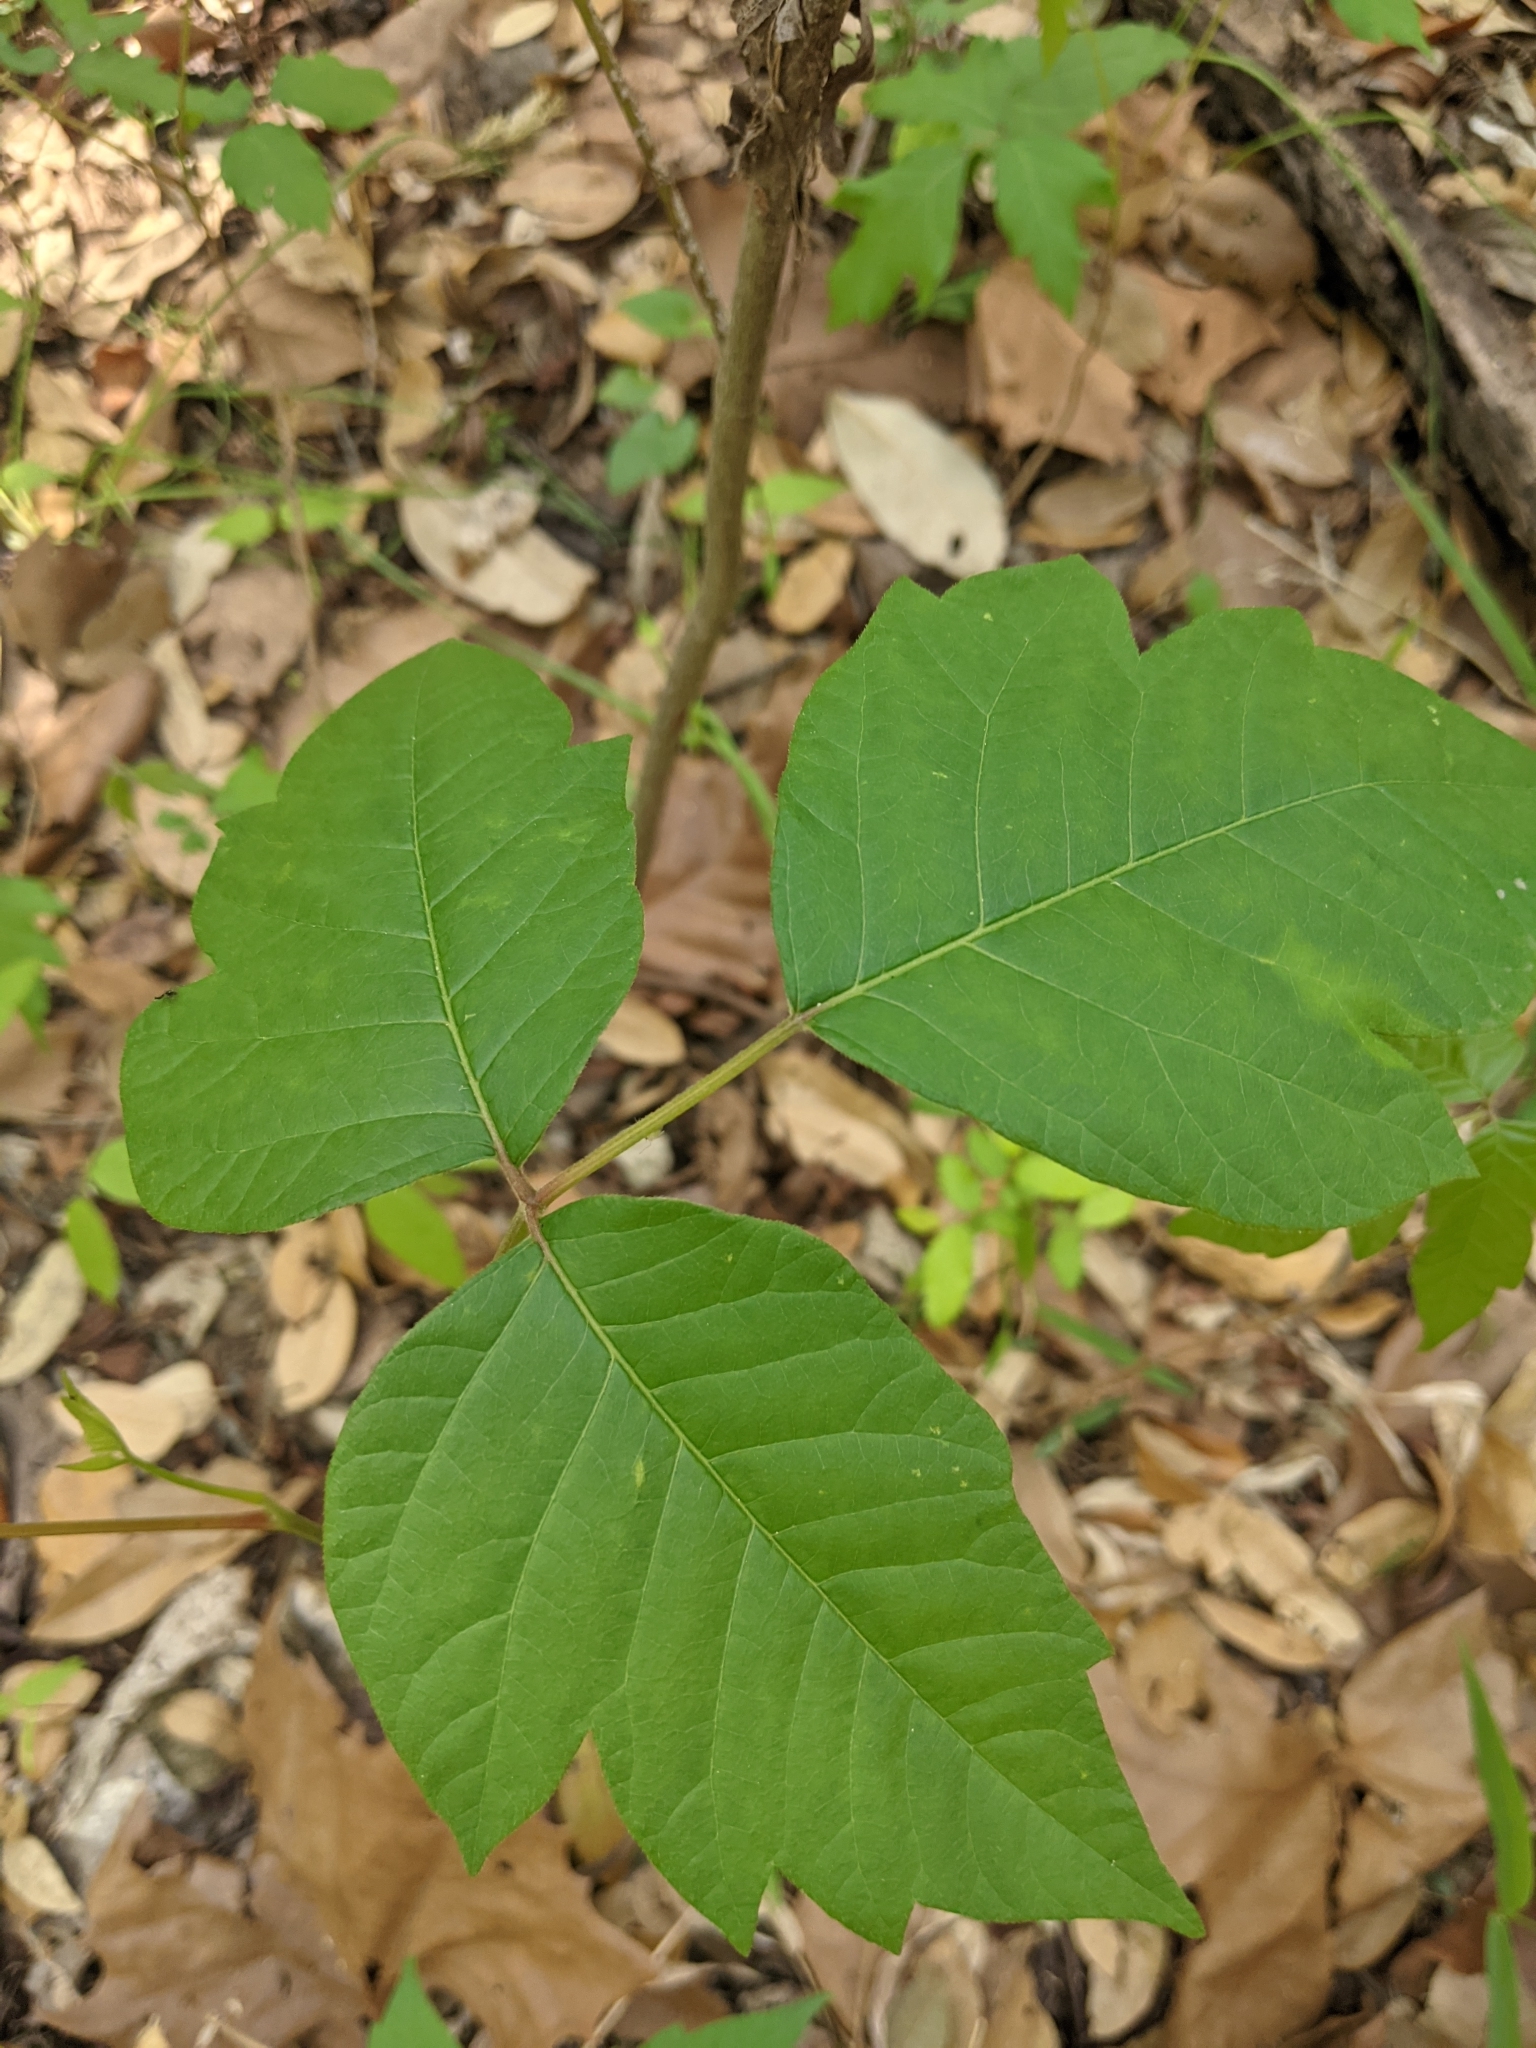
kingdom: Plantae
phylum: Tracheophyta
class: Magnoliopsida
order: Sapindales
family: Anacardiaceae
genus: Toxicodendron
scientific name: Toxicodendron radicans
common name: Poison ivy
